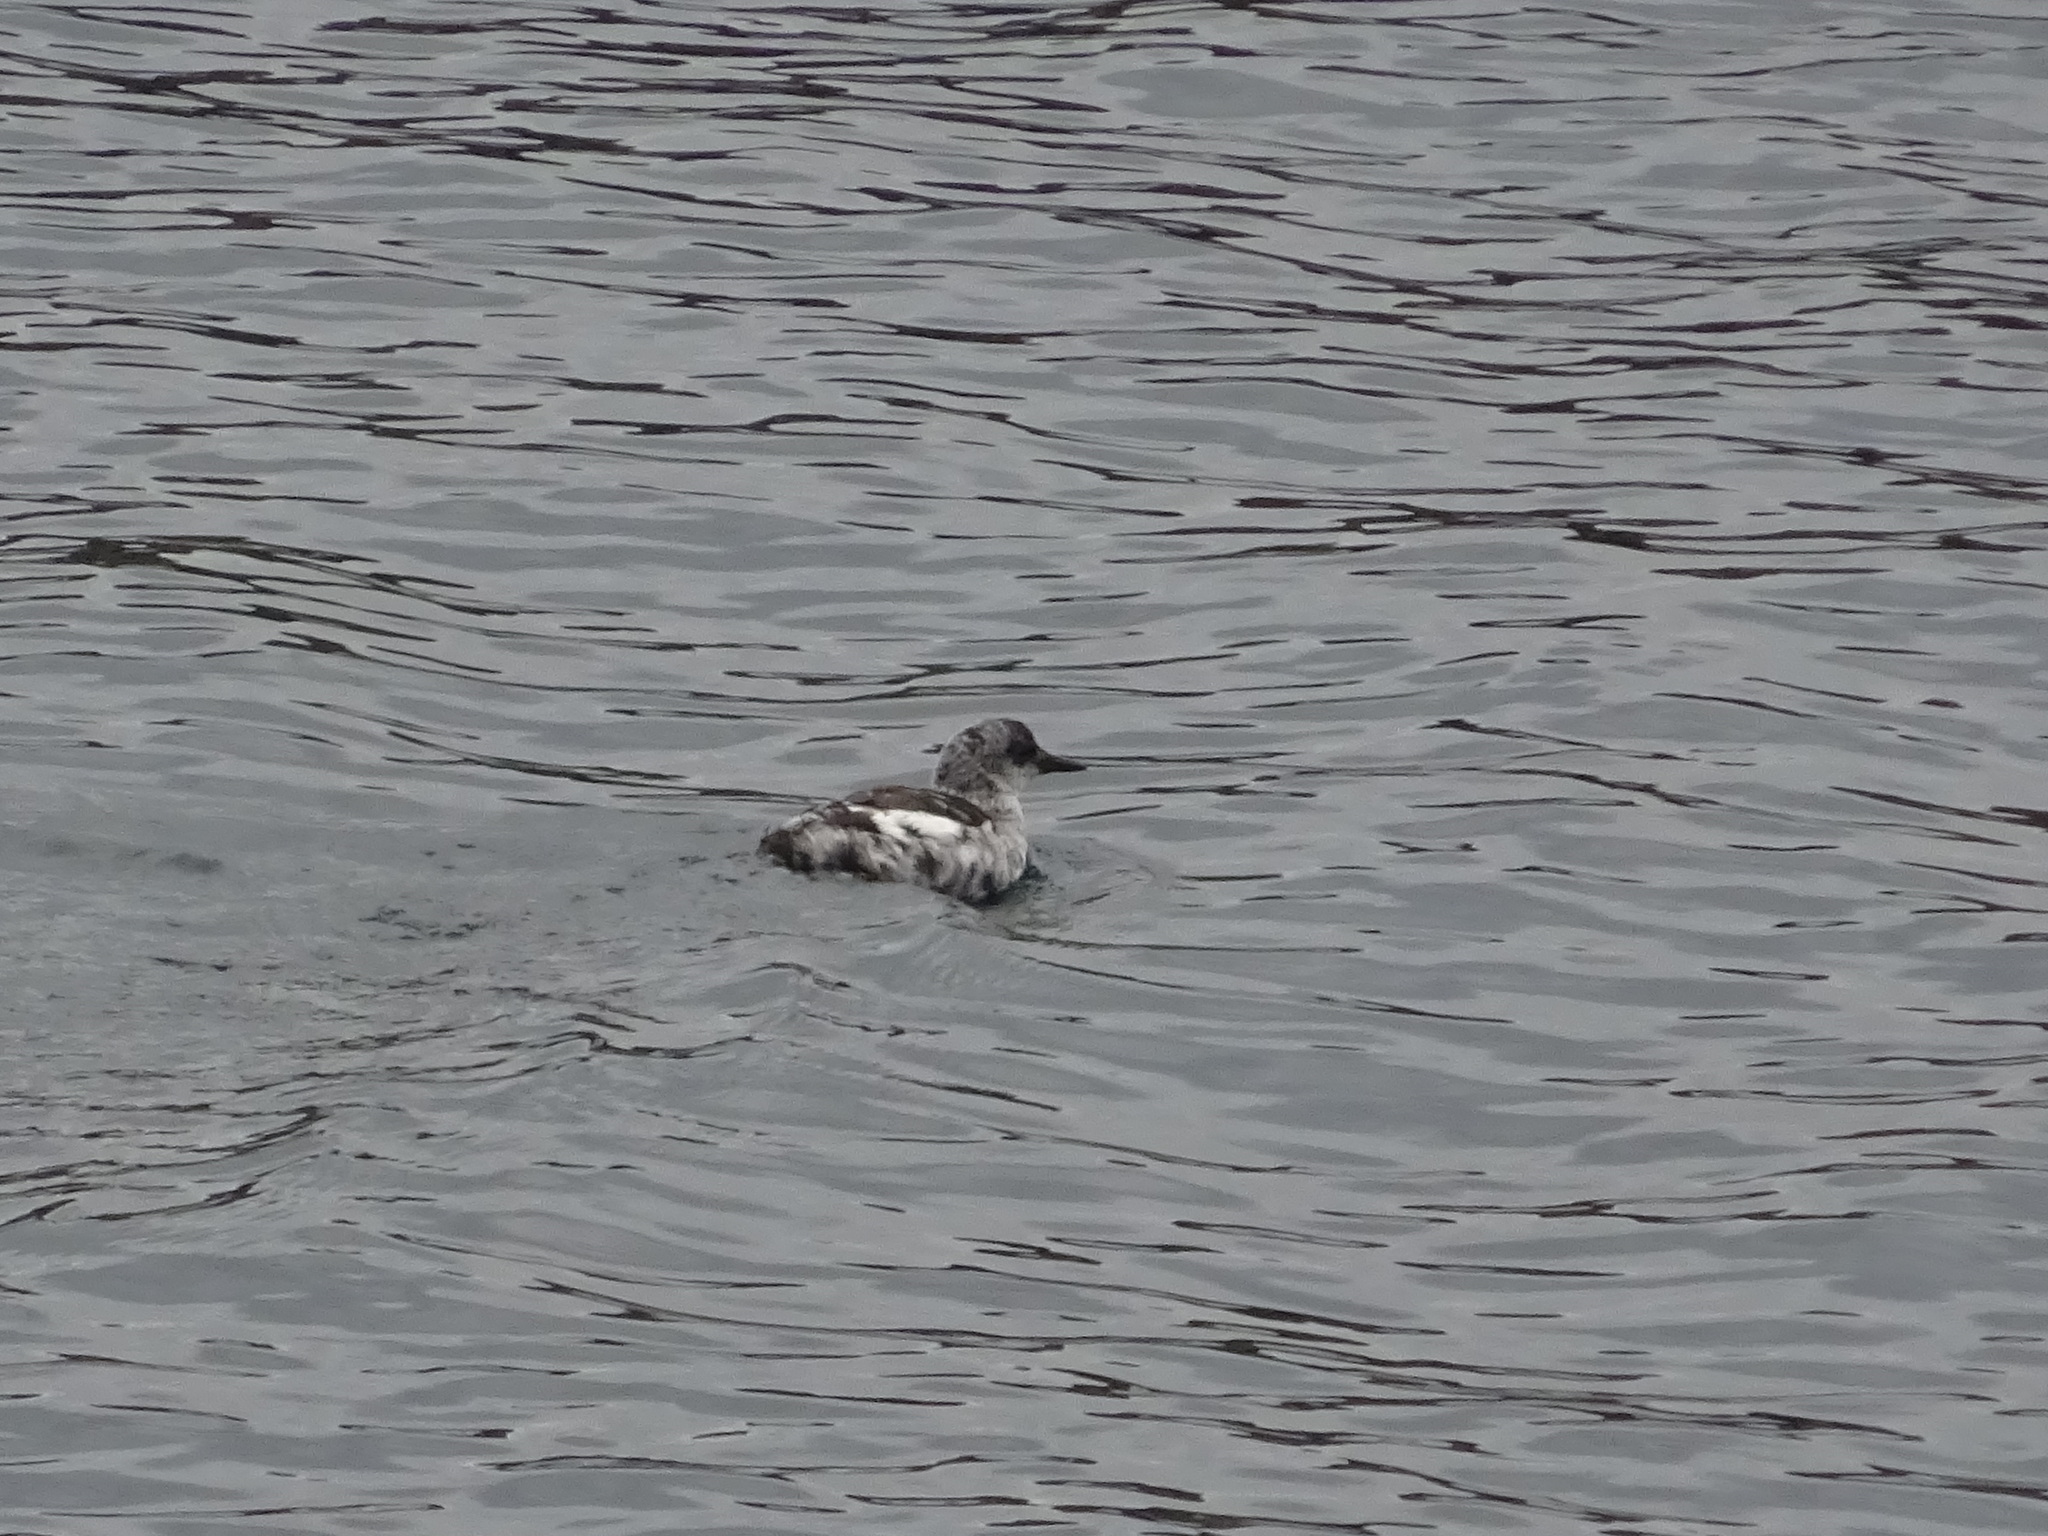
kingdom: Animalia
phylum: Chordata
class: Aves
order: Charadriiformes
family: Alcidae
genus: Cepphus
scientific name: Cepphus grylle
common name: Black guillemot
